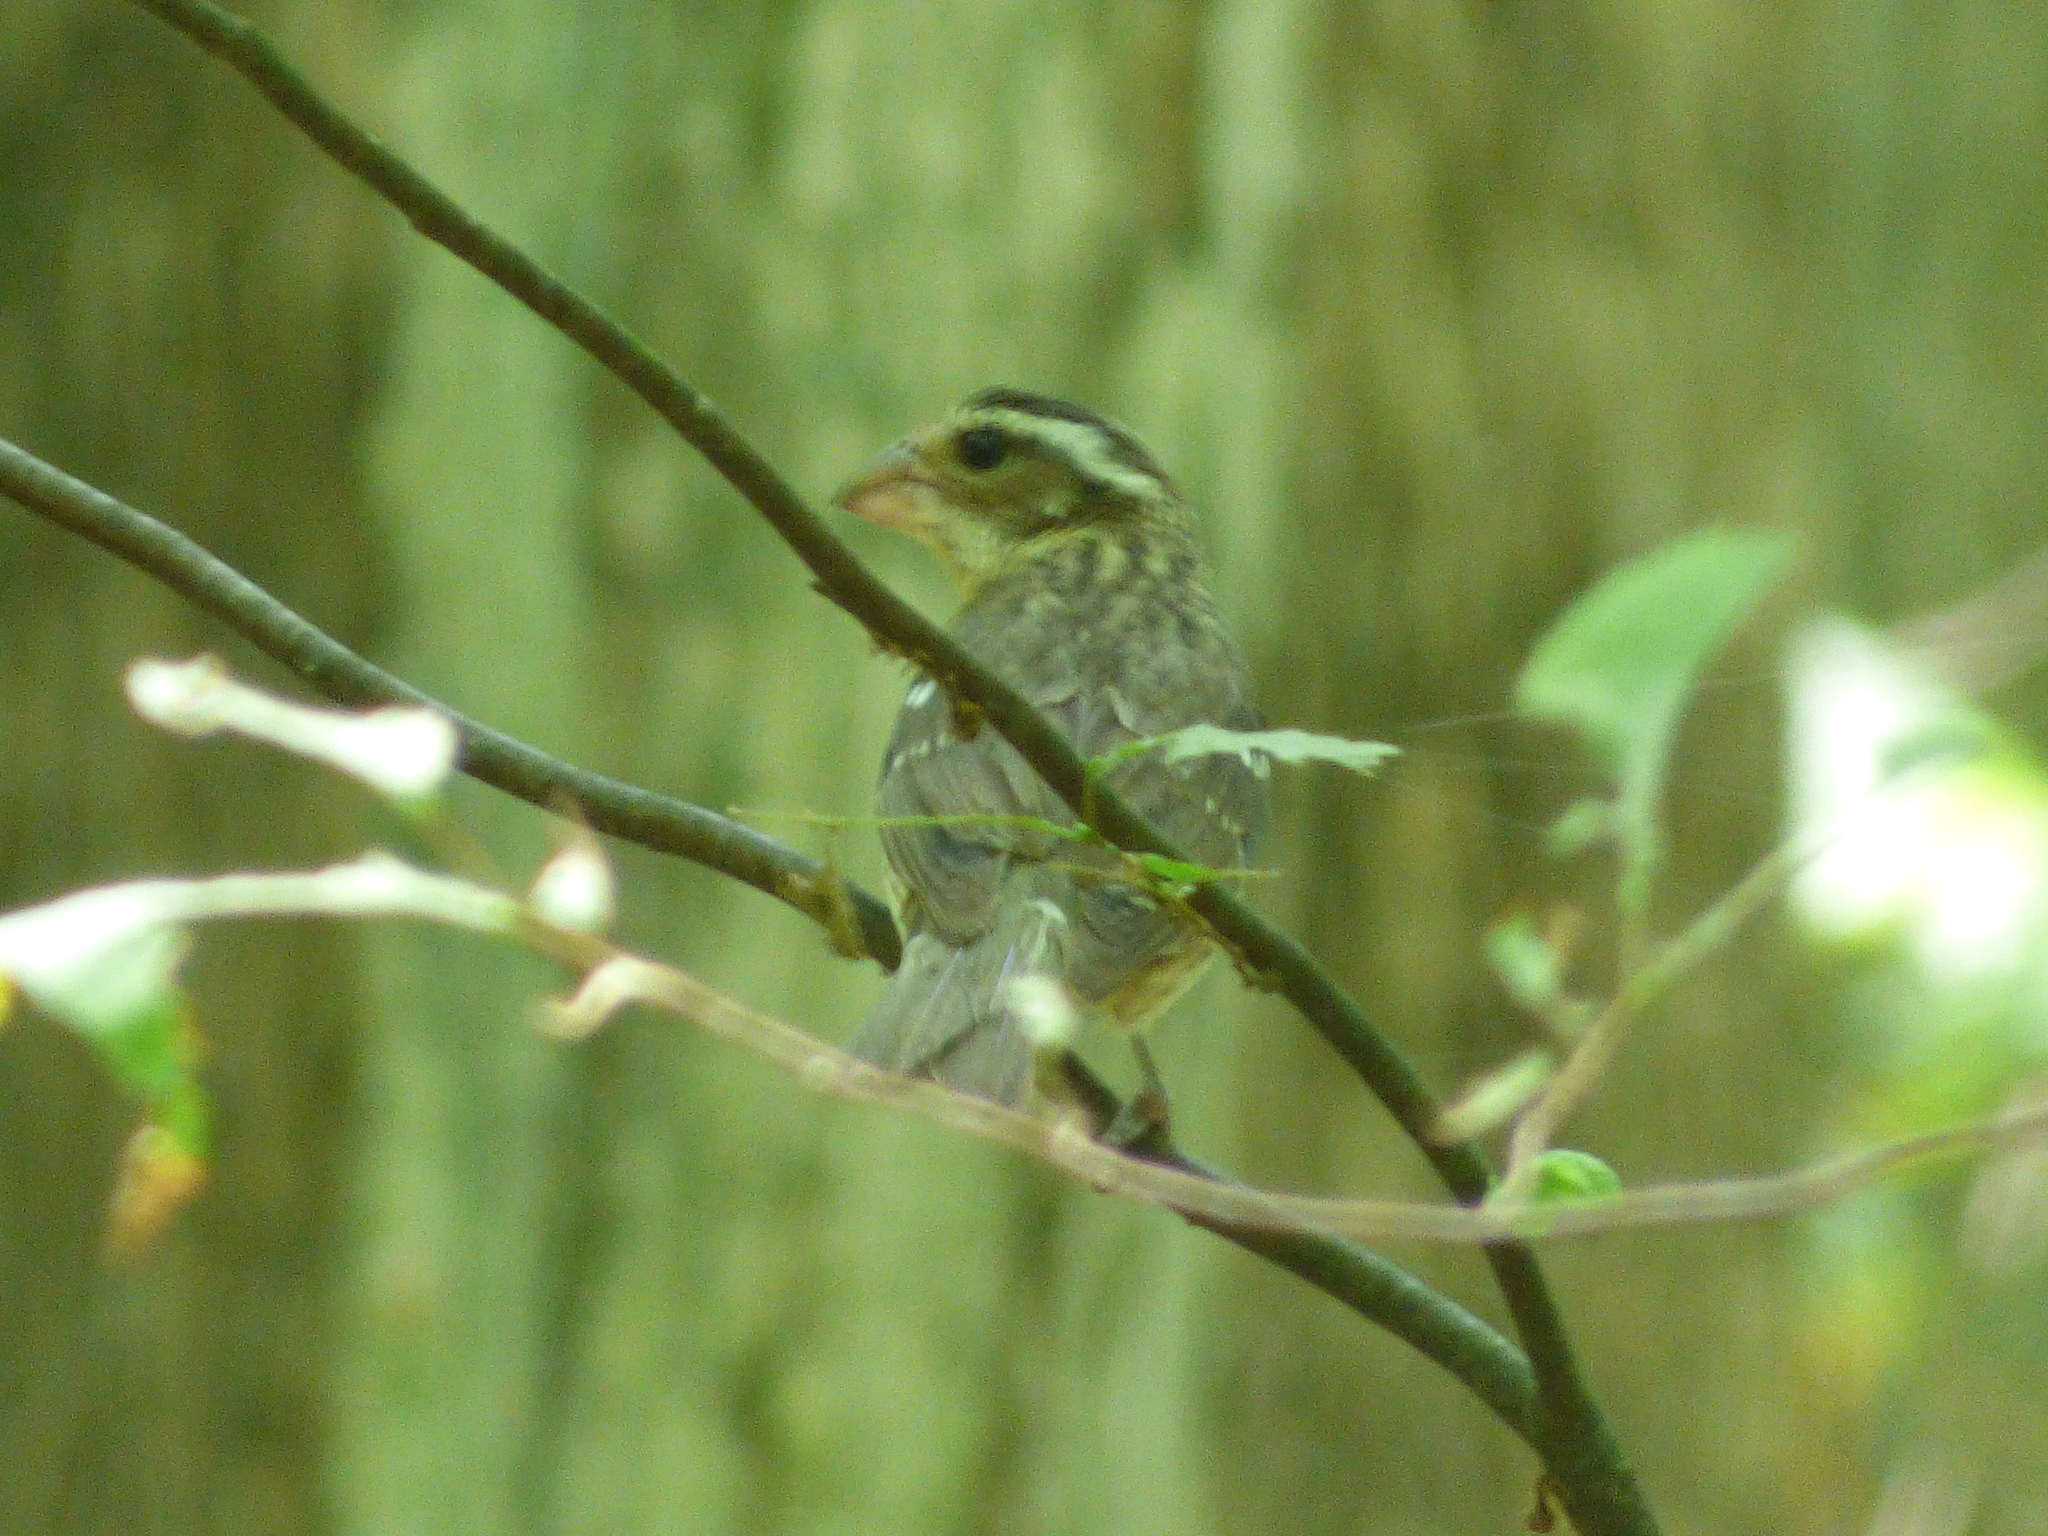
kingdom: Animalia
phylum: Chordata
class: Aves
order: Passeriformes
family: Cardinalidae
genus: Pheucticus
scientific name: Pheucticus ludovicianus
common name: Rose-breasted grosbeak
